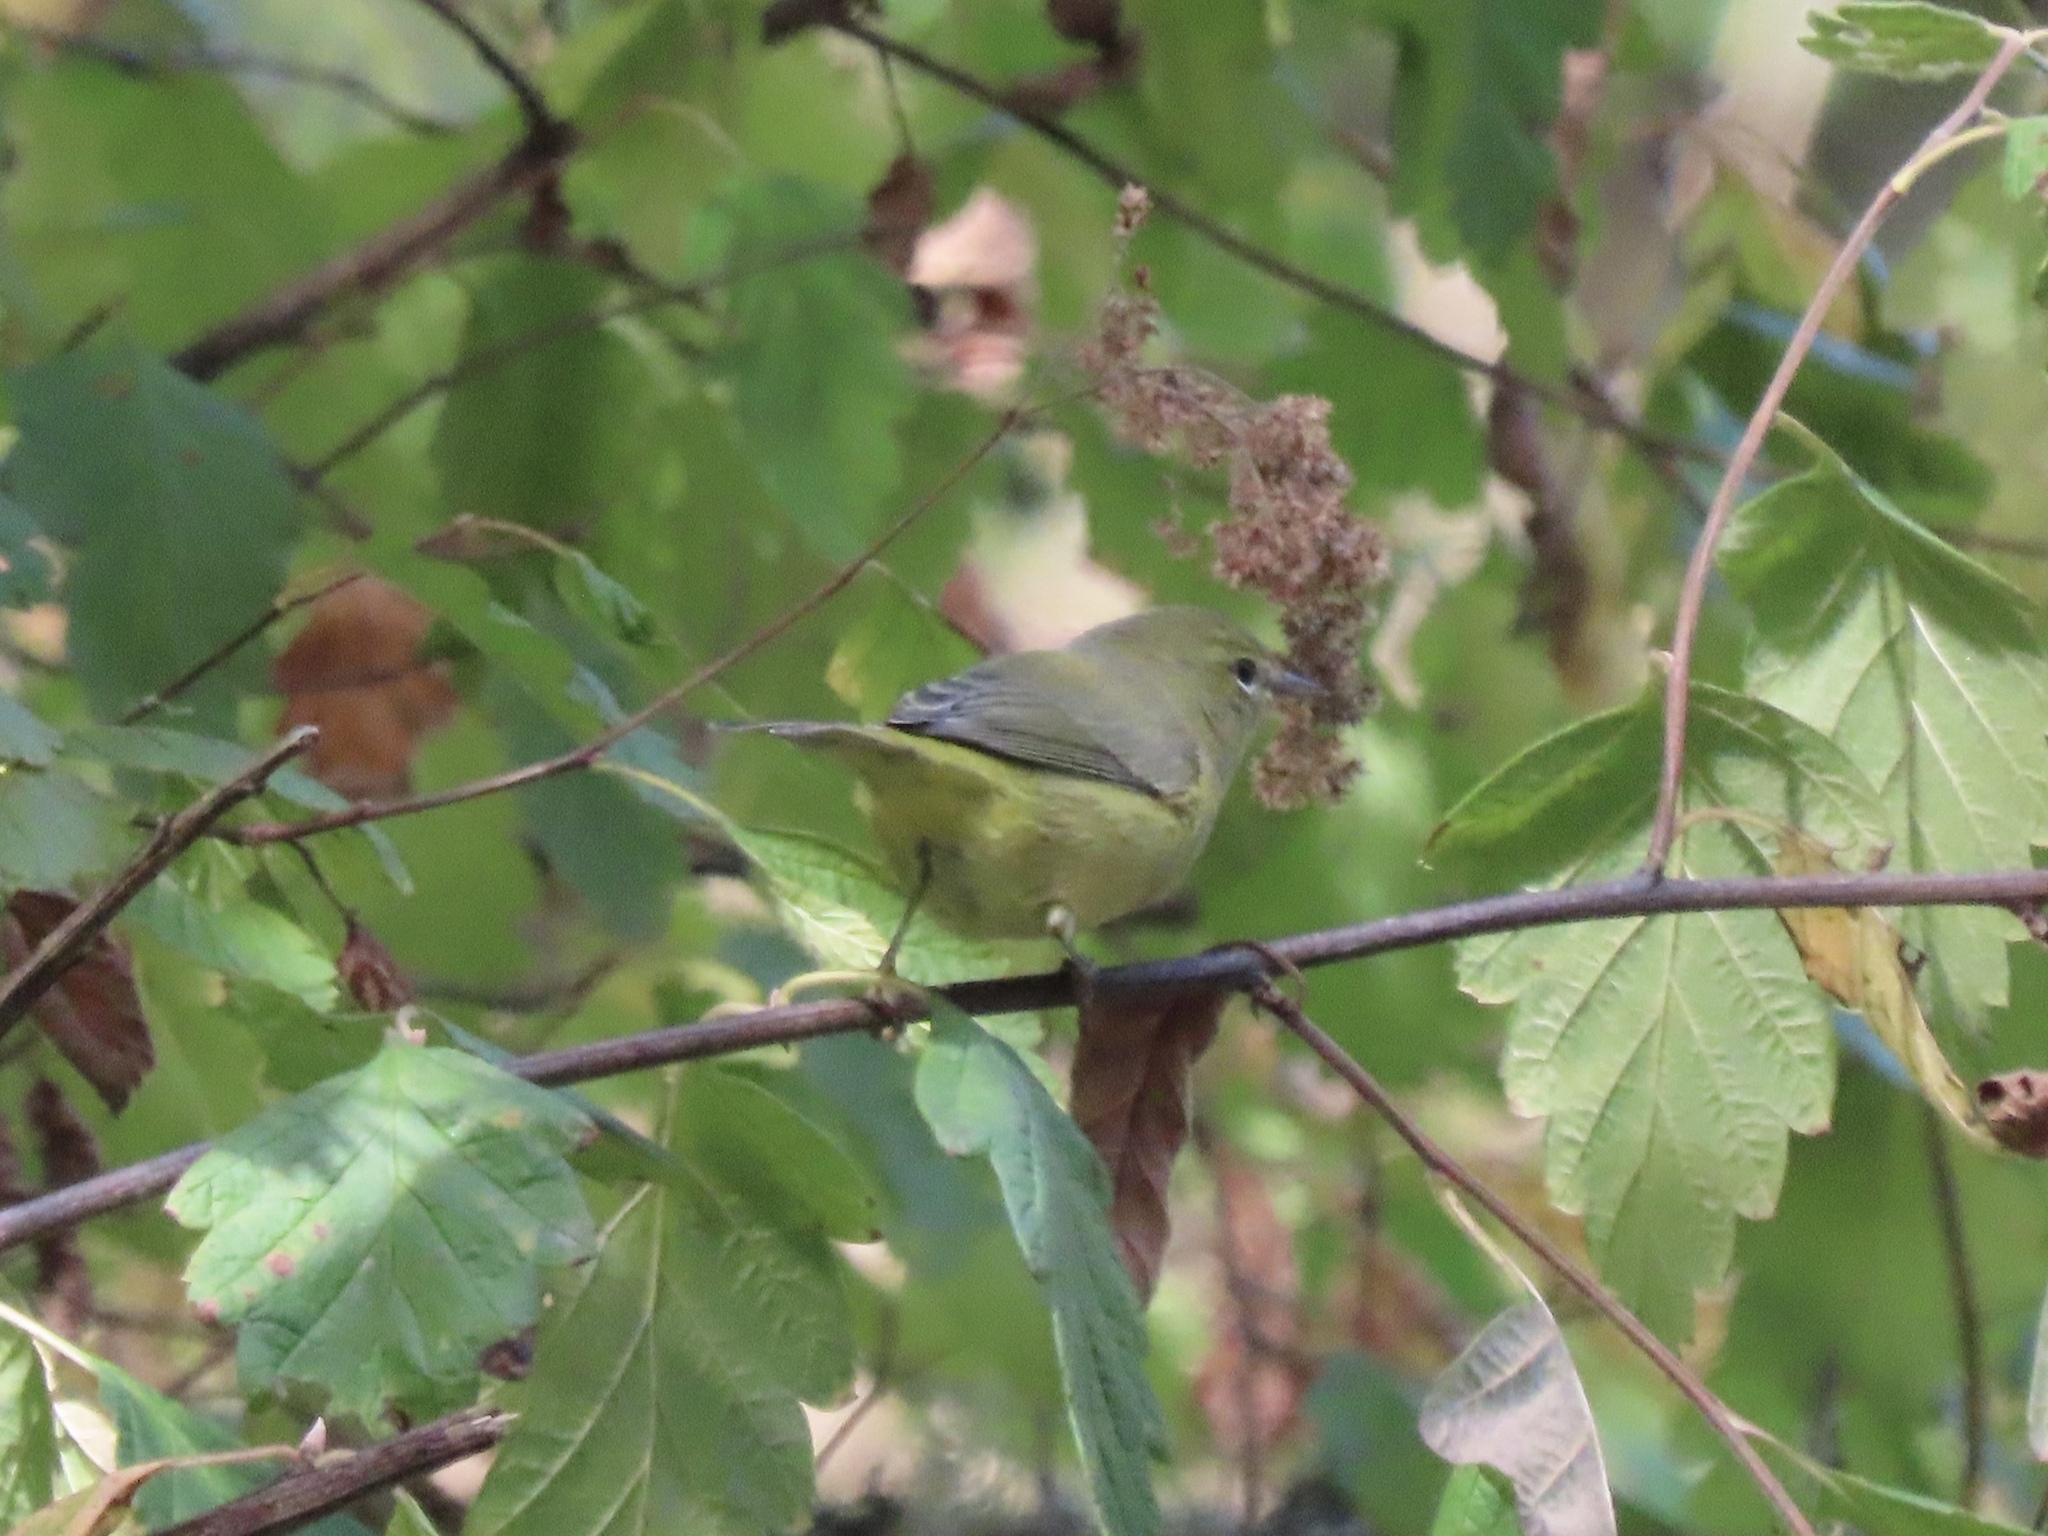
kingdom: Animalia
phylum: Chordata
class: Aves
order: Passeriformes
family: Parulidae
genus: Leiothlypis
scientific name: Leiothlypis celata
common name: Orange-crowned warbler
